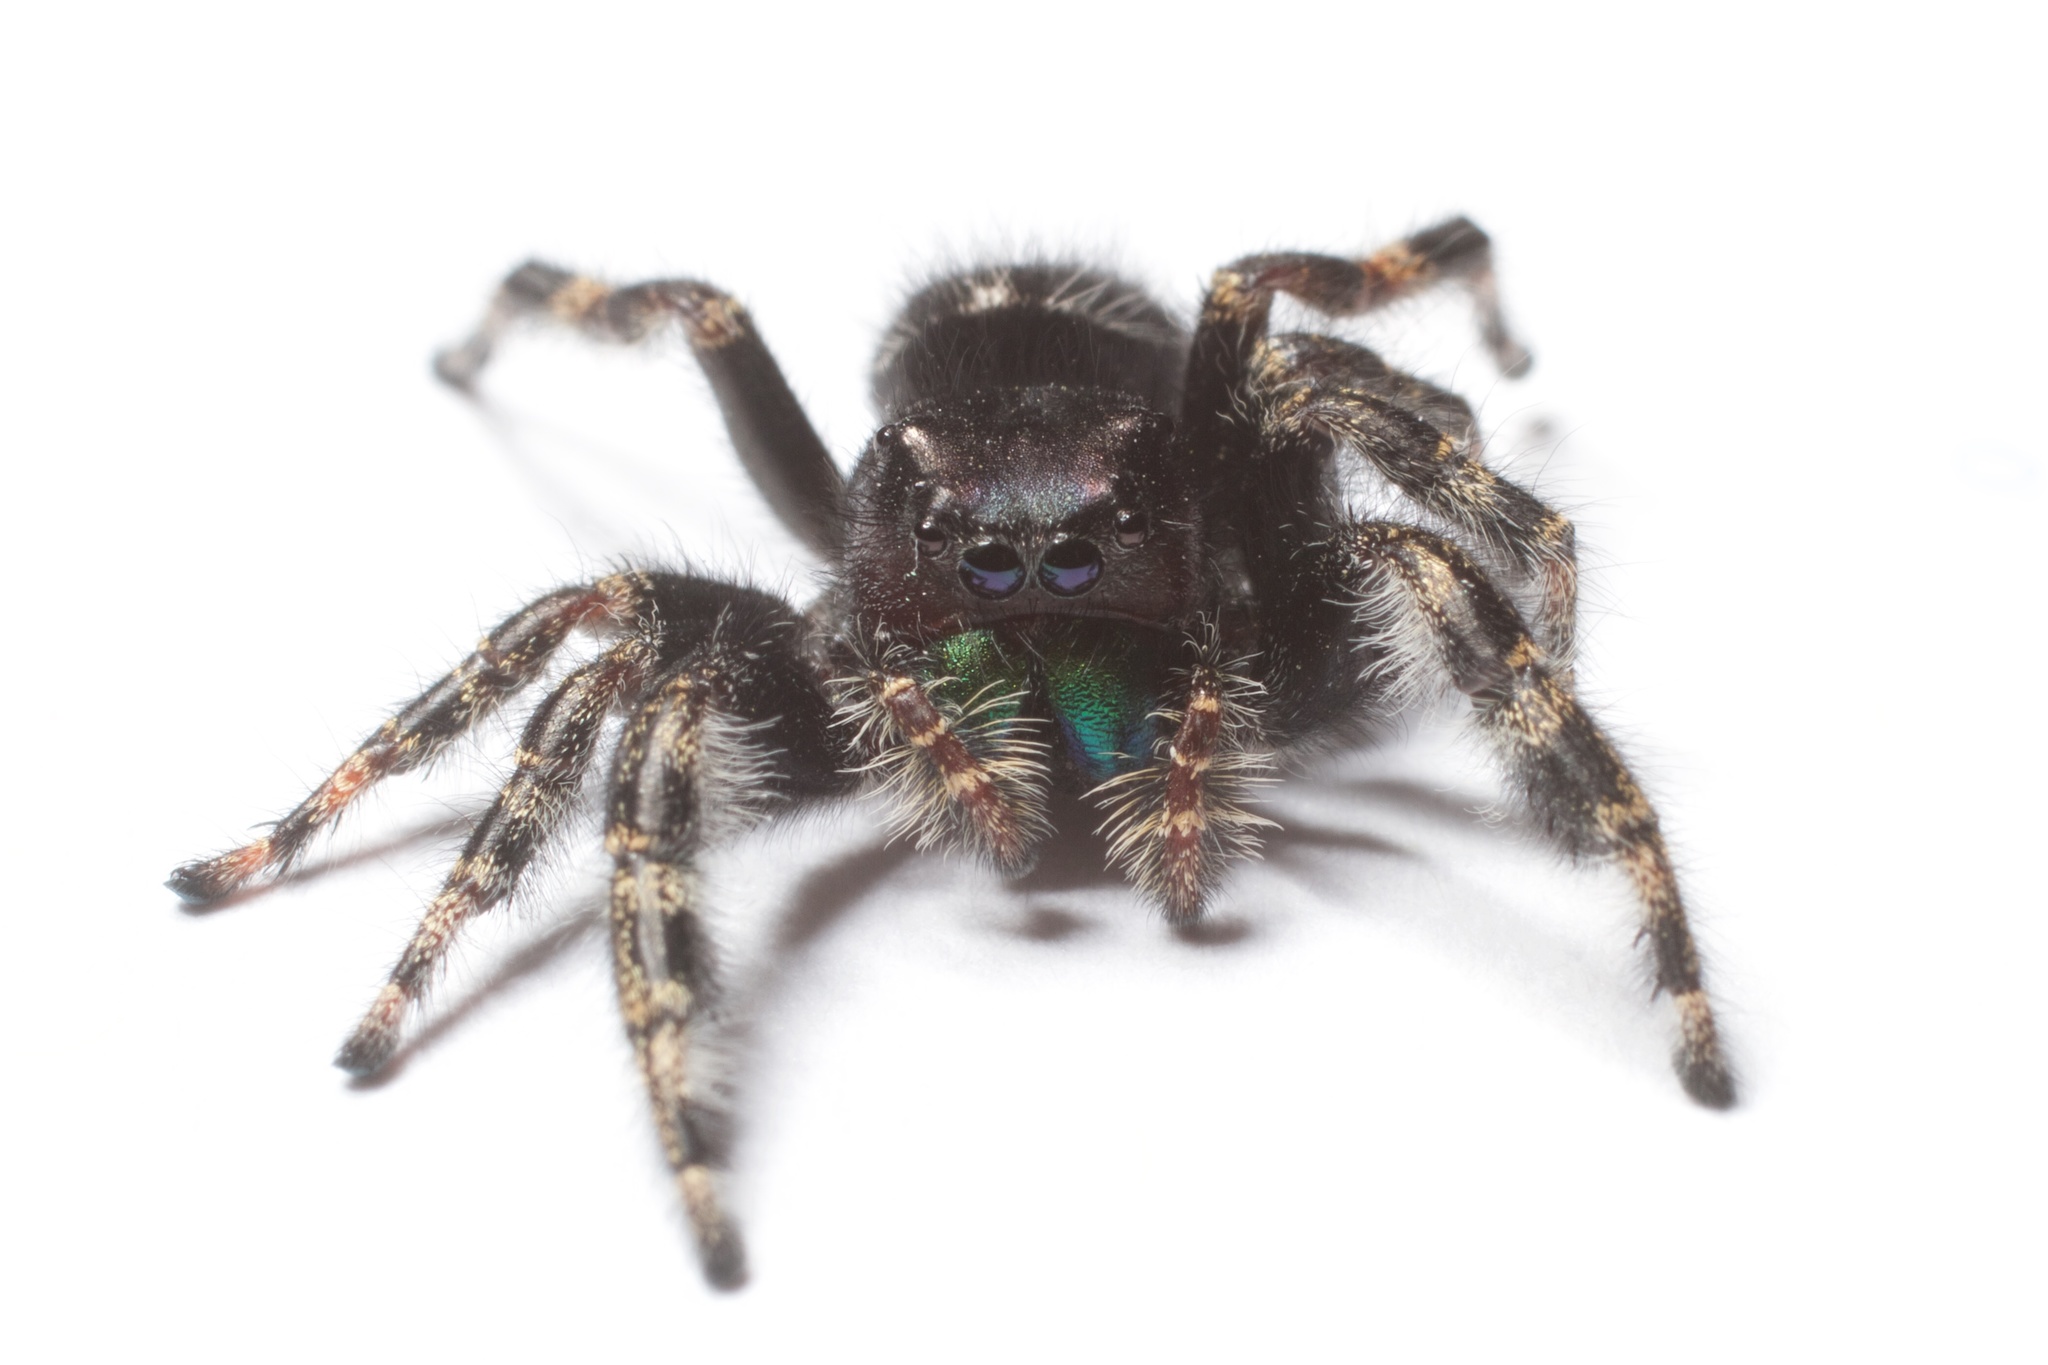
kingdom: Animalia
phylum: Arthropoda
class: Arachnida
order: Araneae
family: Salticidae
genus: Phidippus
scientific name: Phidippus audax
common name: Bold jumper
